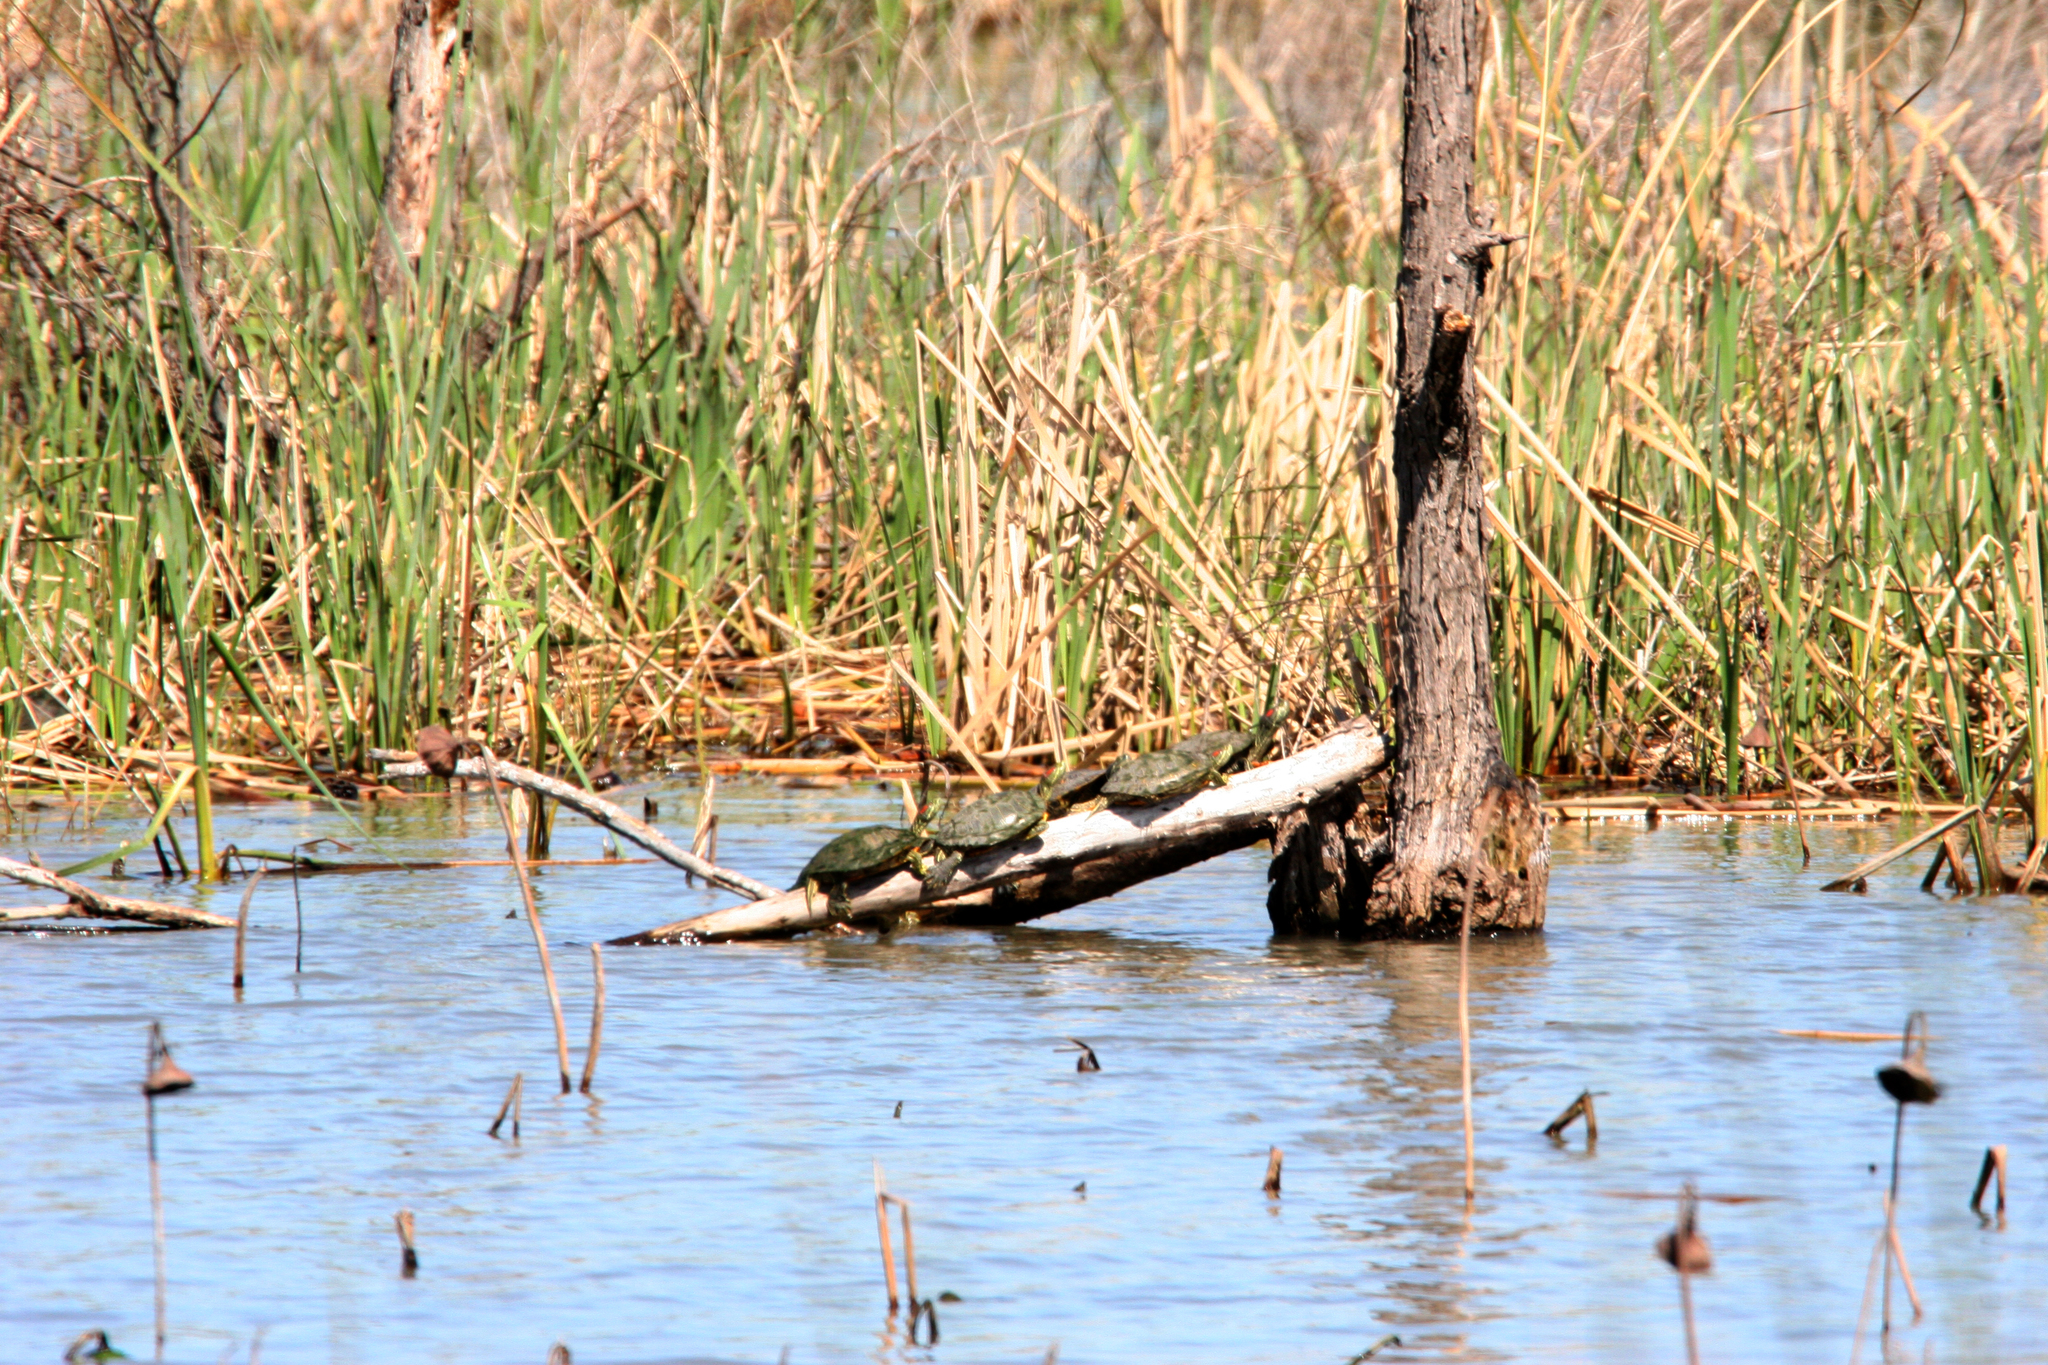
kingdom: Animalia
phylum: Chordata
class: Testudines
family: Emydidae
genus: Trachemys
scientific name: Trachemys scripta
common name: Slider
